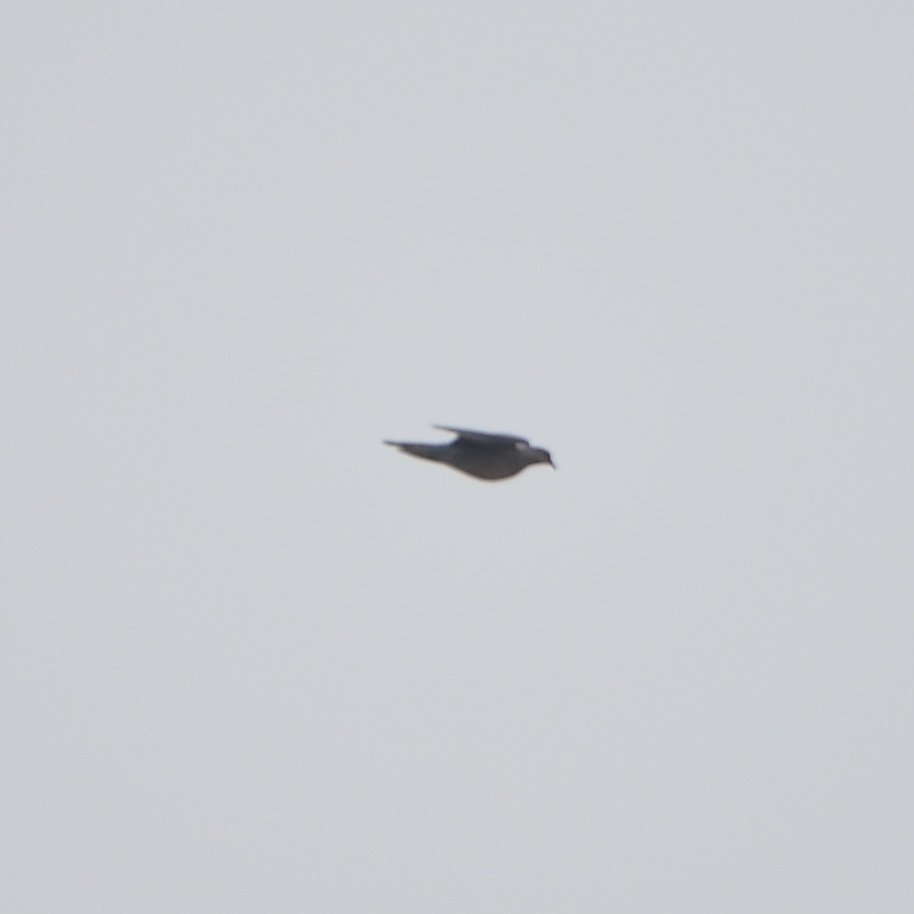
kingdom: Animalia
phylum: Chordata
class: Aves
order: Columbiformes
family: Columbidae
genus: Streptopelia
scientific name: Streptopelia orientalis
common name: Oriental turtle dove
